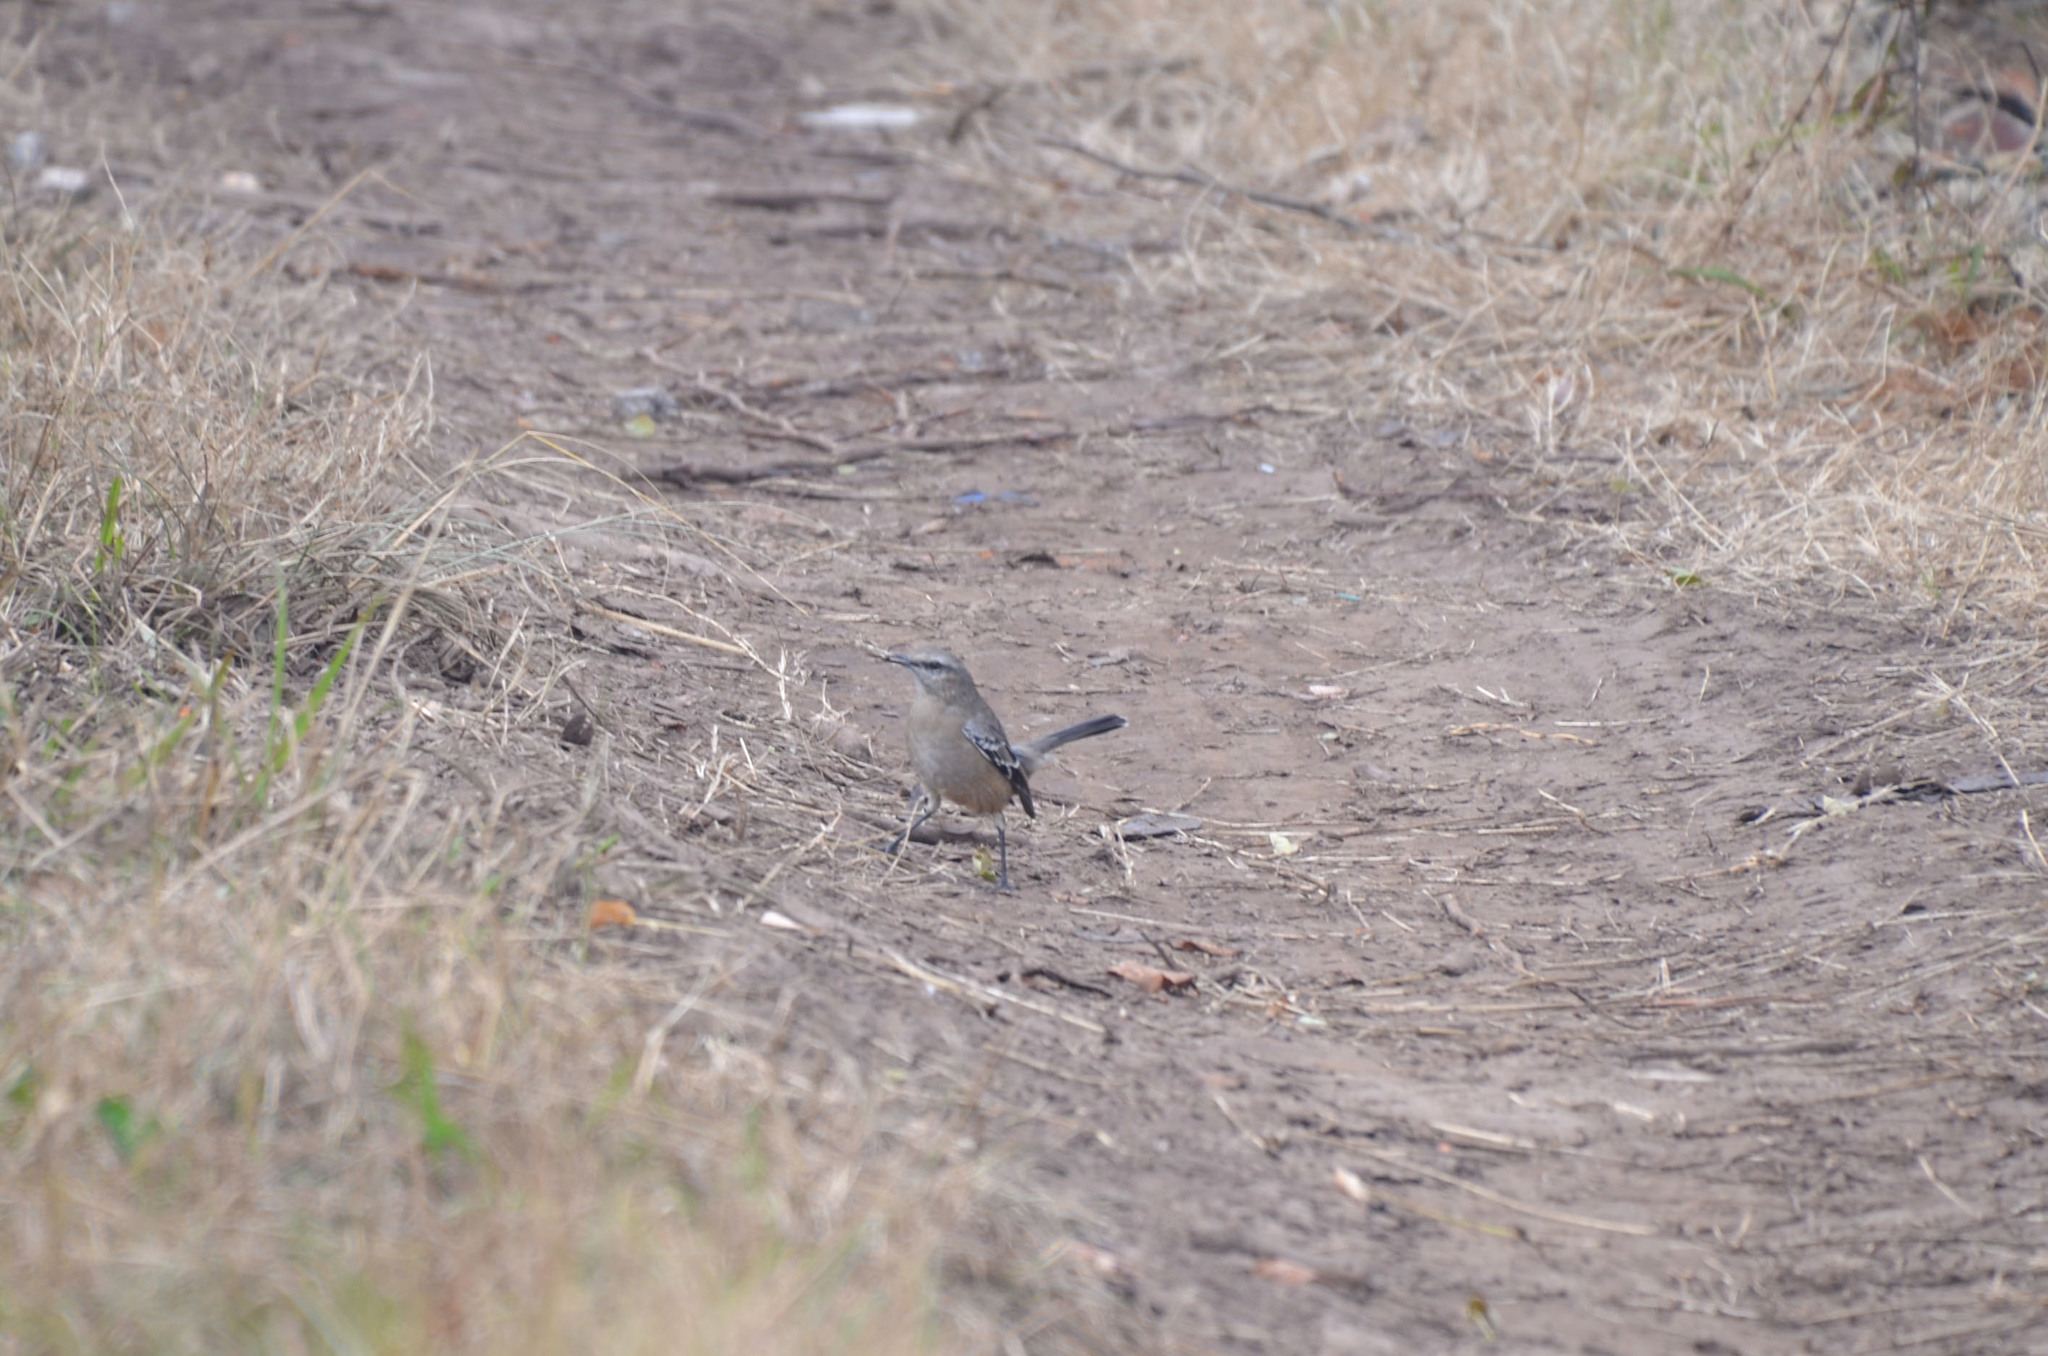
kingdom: Animalia
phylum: Chordata
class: Aves
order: Passeriformes
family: Mimidae
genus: Mimus
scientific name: Mimus patagonicus
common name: Patagonian mockingbird
